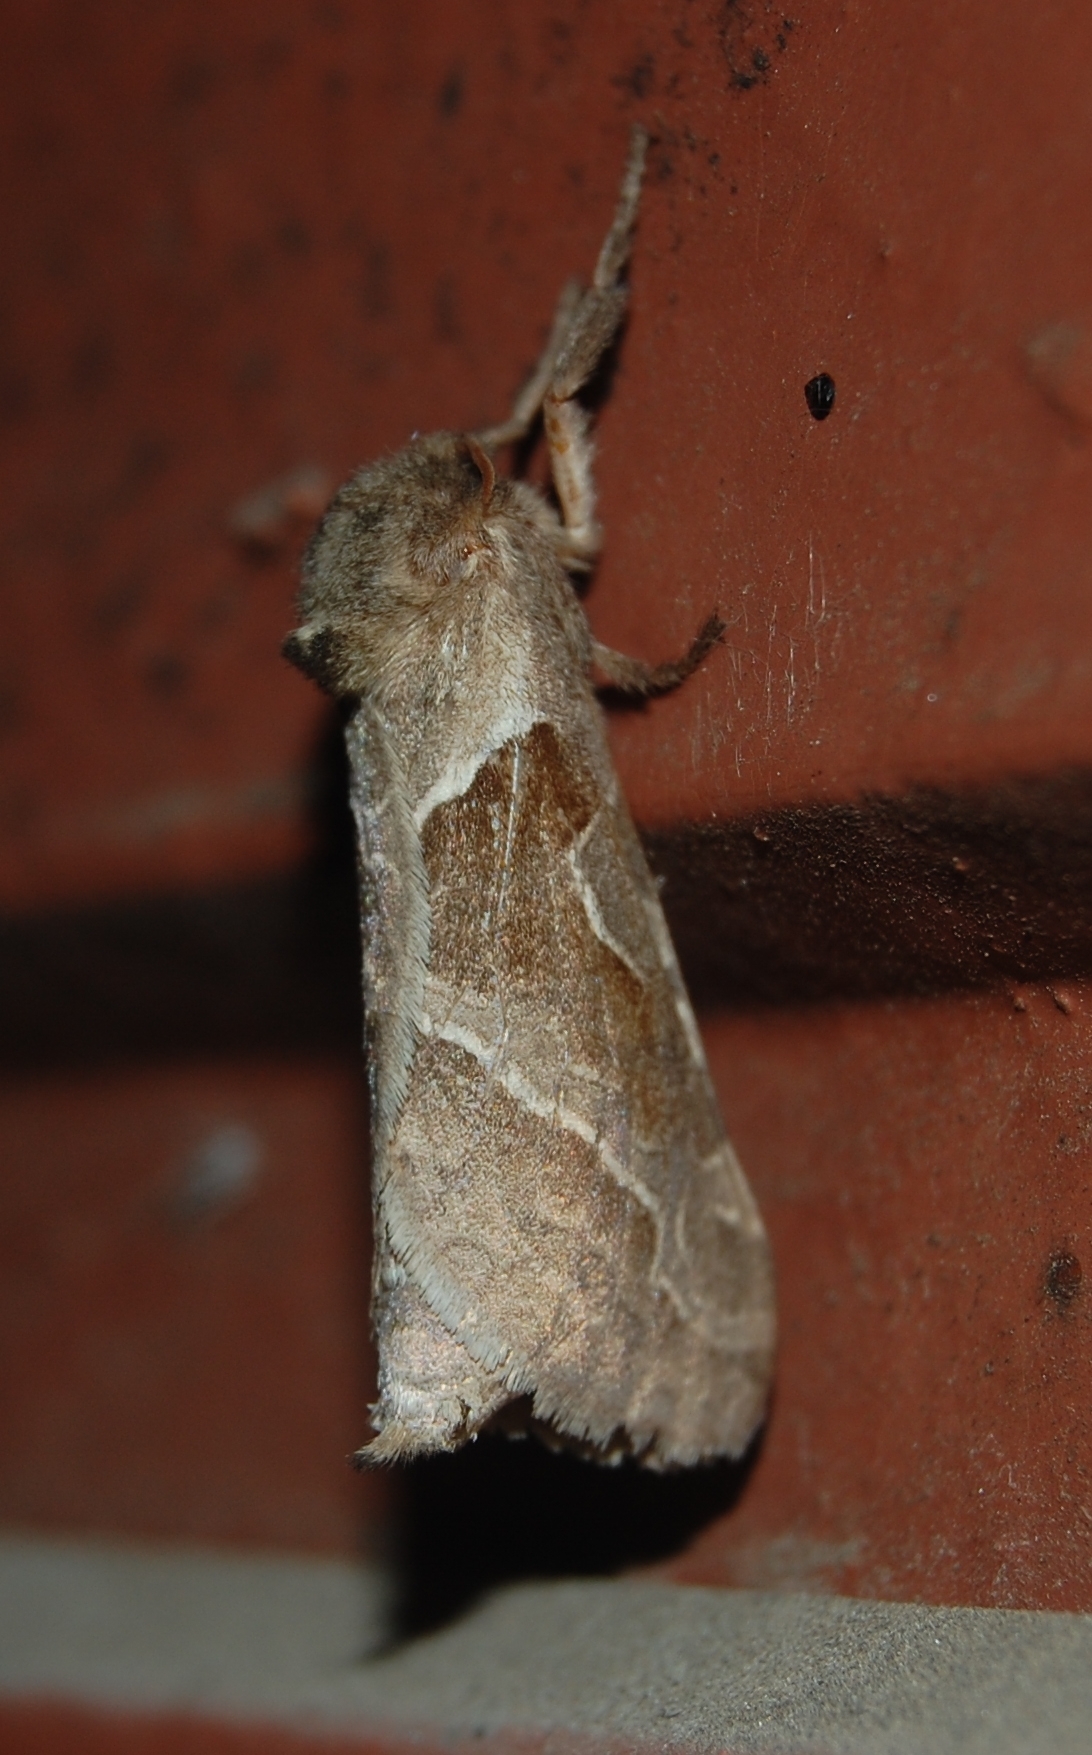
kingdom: Animalia
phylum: Arthropoda
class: Insecta
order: Lepidoptera
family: Hepialidae
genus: Triodia
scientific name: Triodia sylvina
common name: Orange swift
